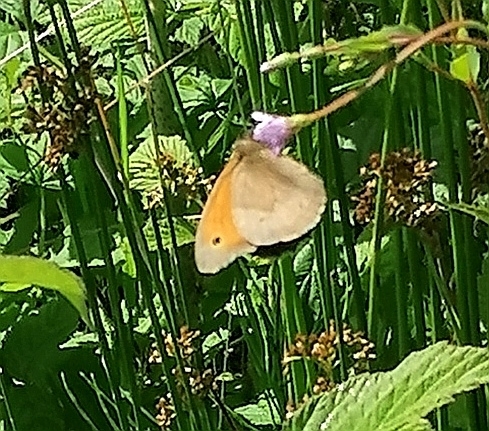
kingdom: Animalia
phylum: Arthropoda
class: Insecta
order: Lepidoptera
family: Nymphalidae
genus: Maniola
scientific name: Maniola jurtina
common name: Meadow brown
